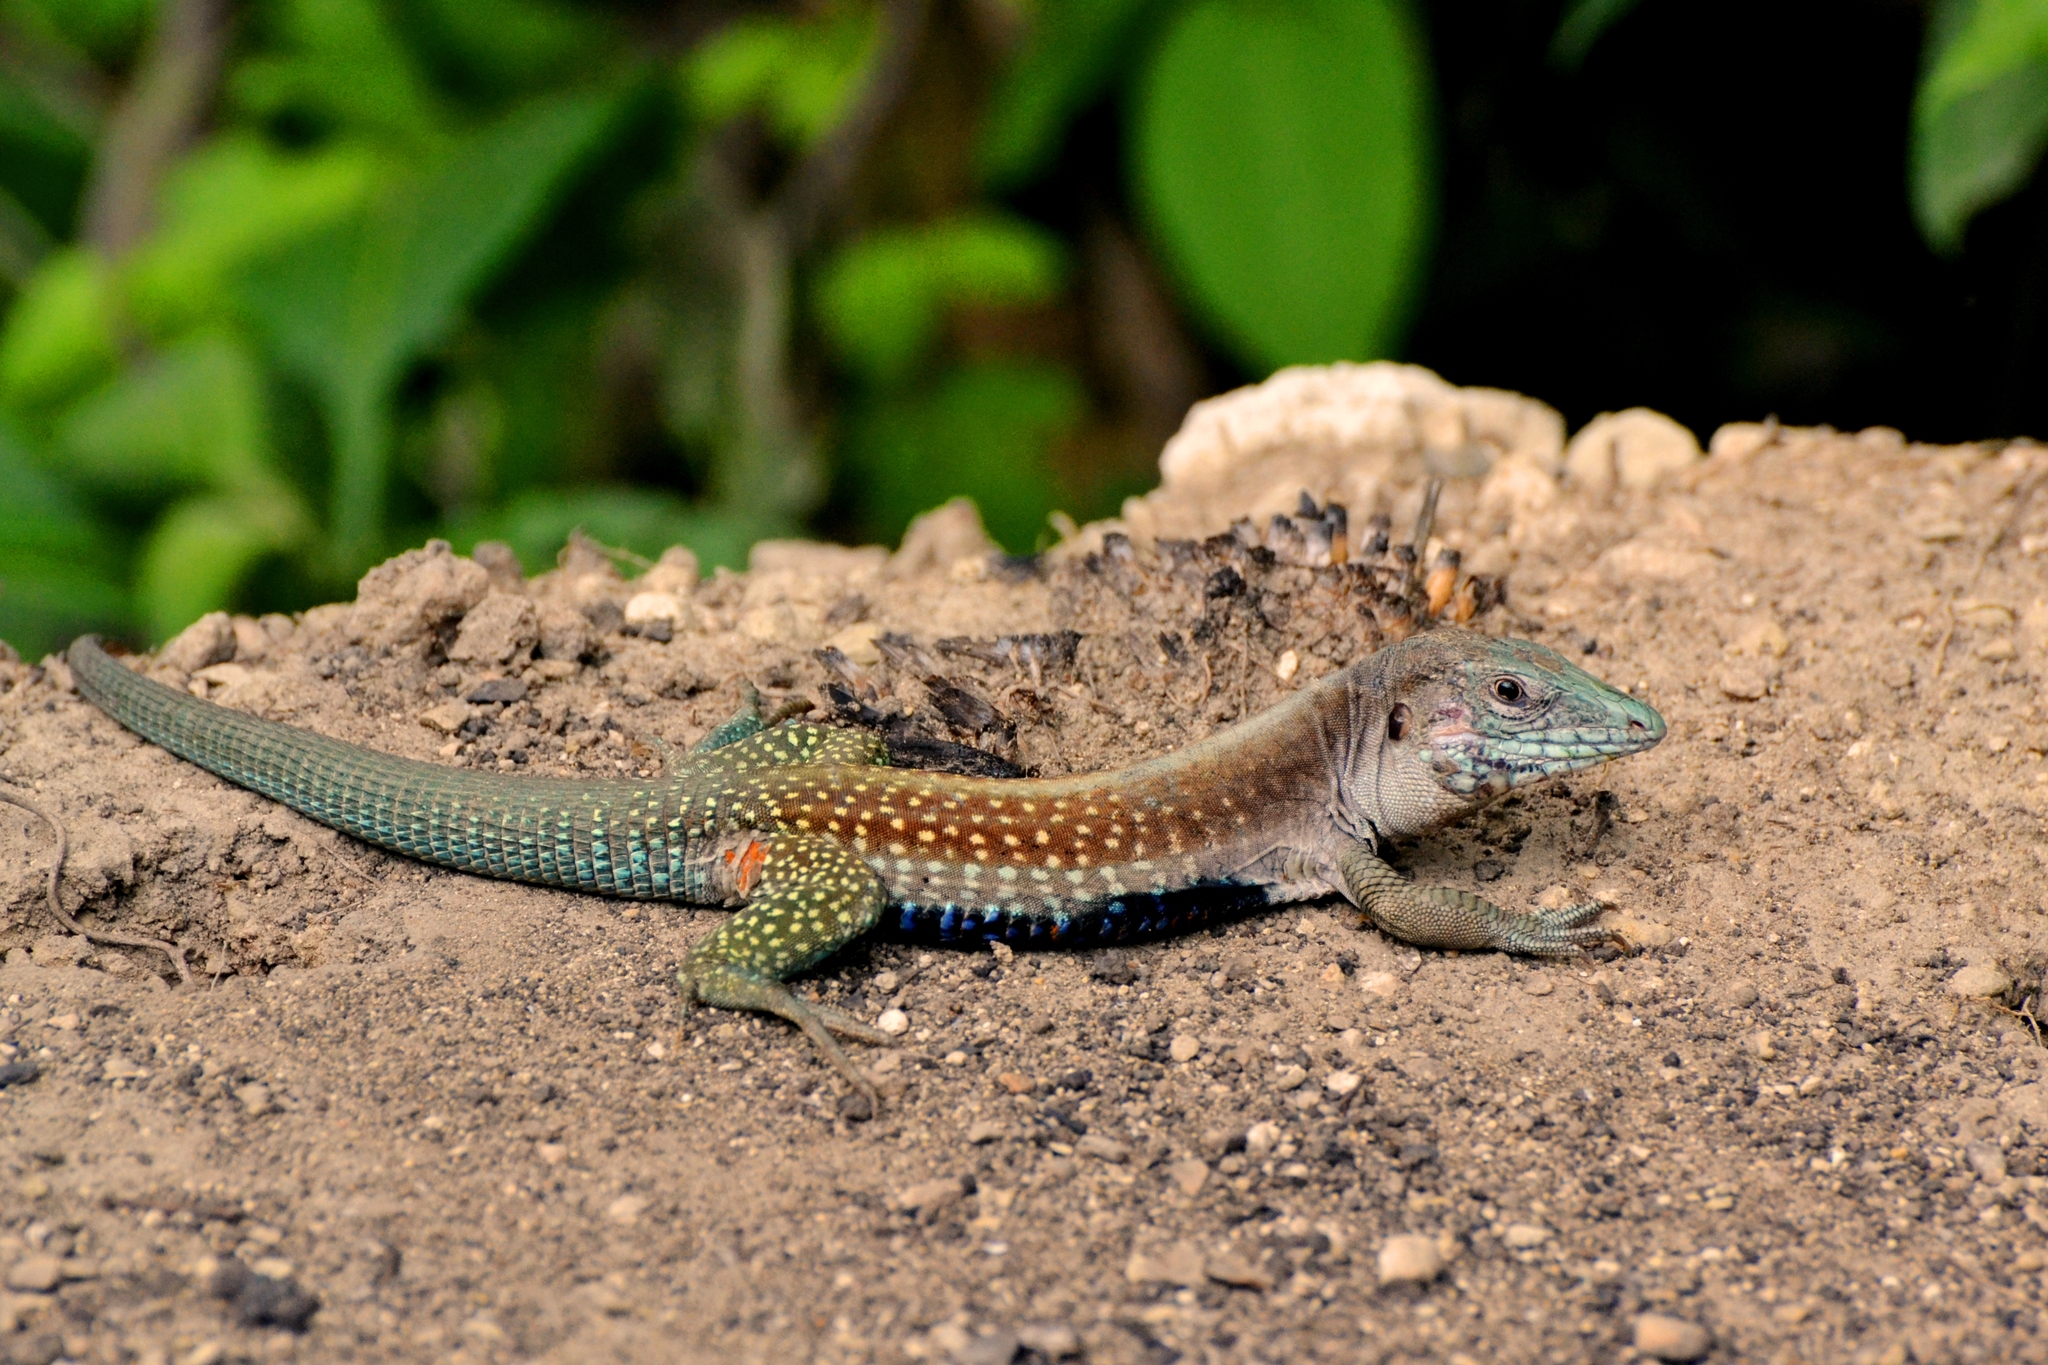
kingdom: Animalia
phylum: Chordata
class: Squamata
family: Teiidae
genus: Aspidoscelis
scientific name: Aspidoscelis motaguae
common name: Giant whiptail
